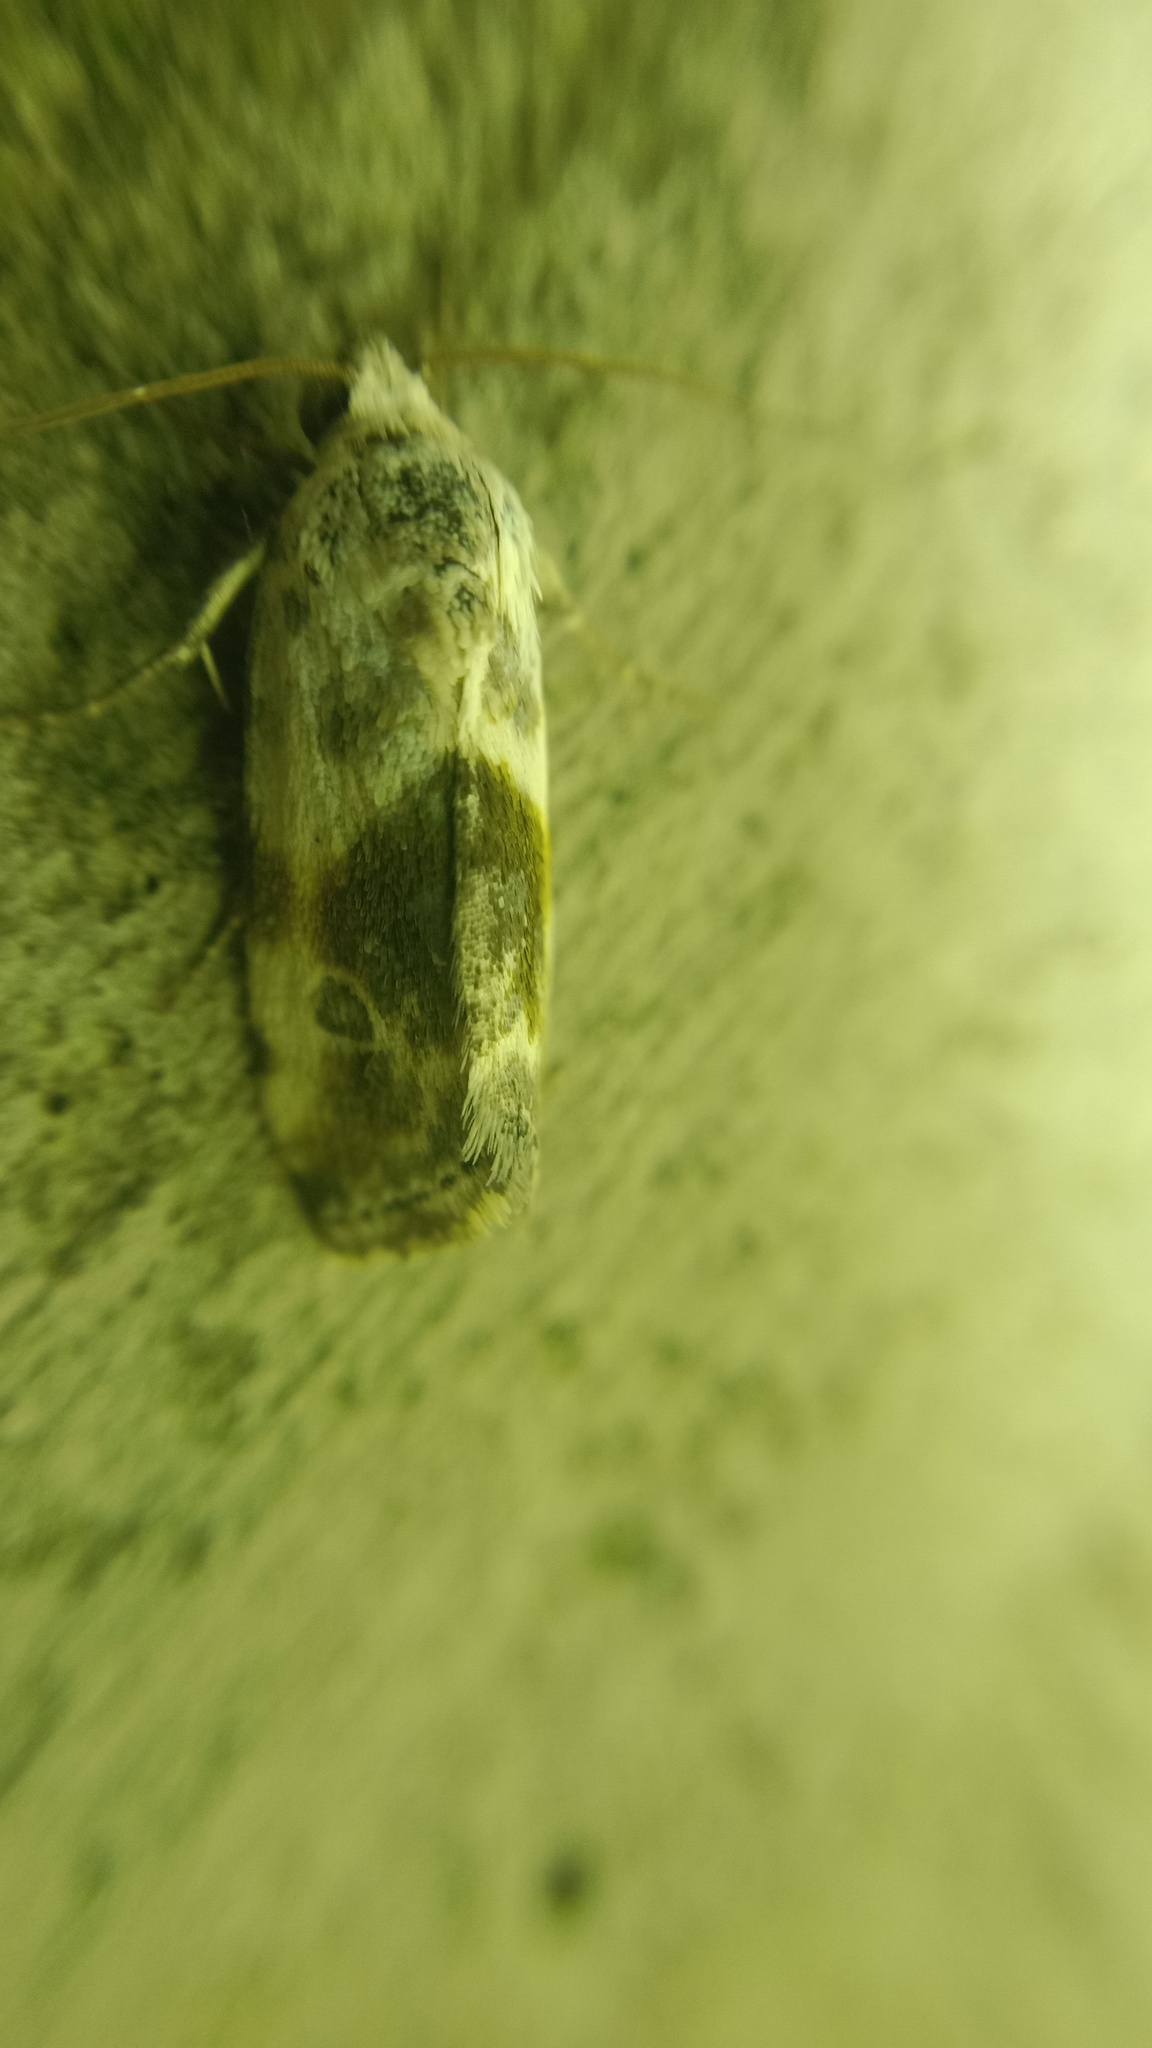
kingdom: Animalia
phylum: Arthropoda
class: Insecta
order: Lepidoptera
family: Noctuidae
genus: Acontia
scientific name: Acontia candefacta
